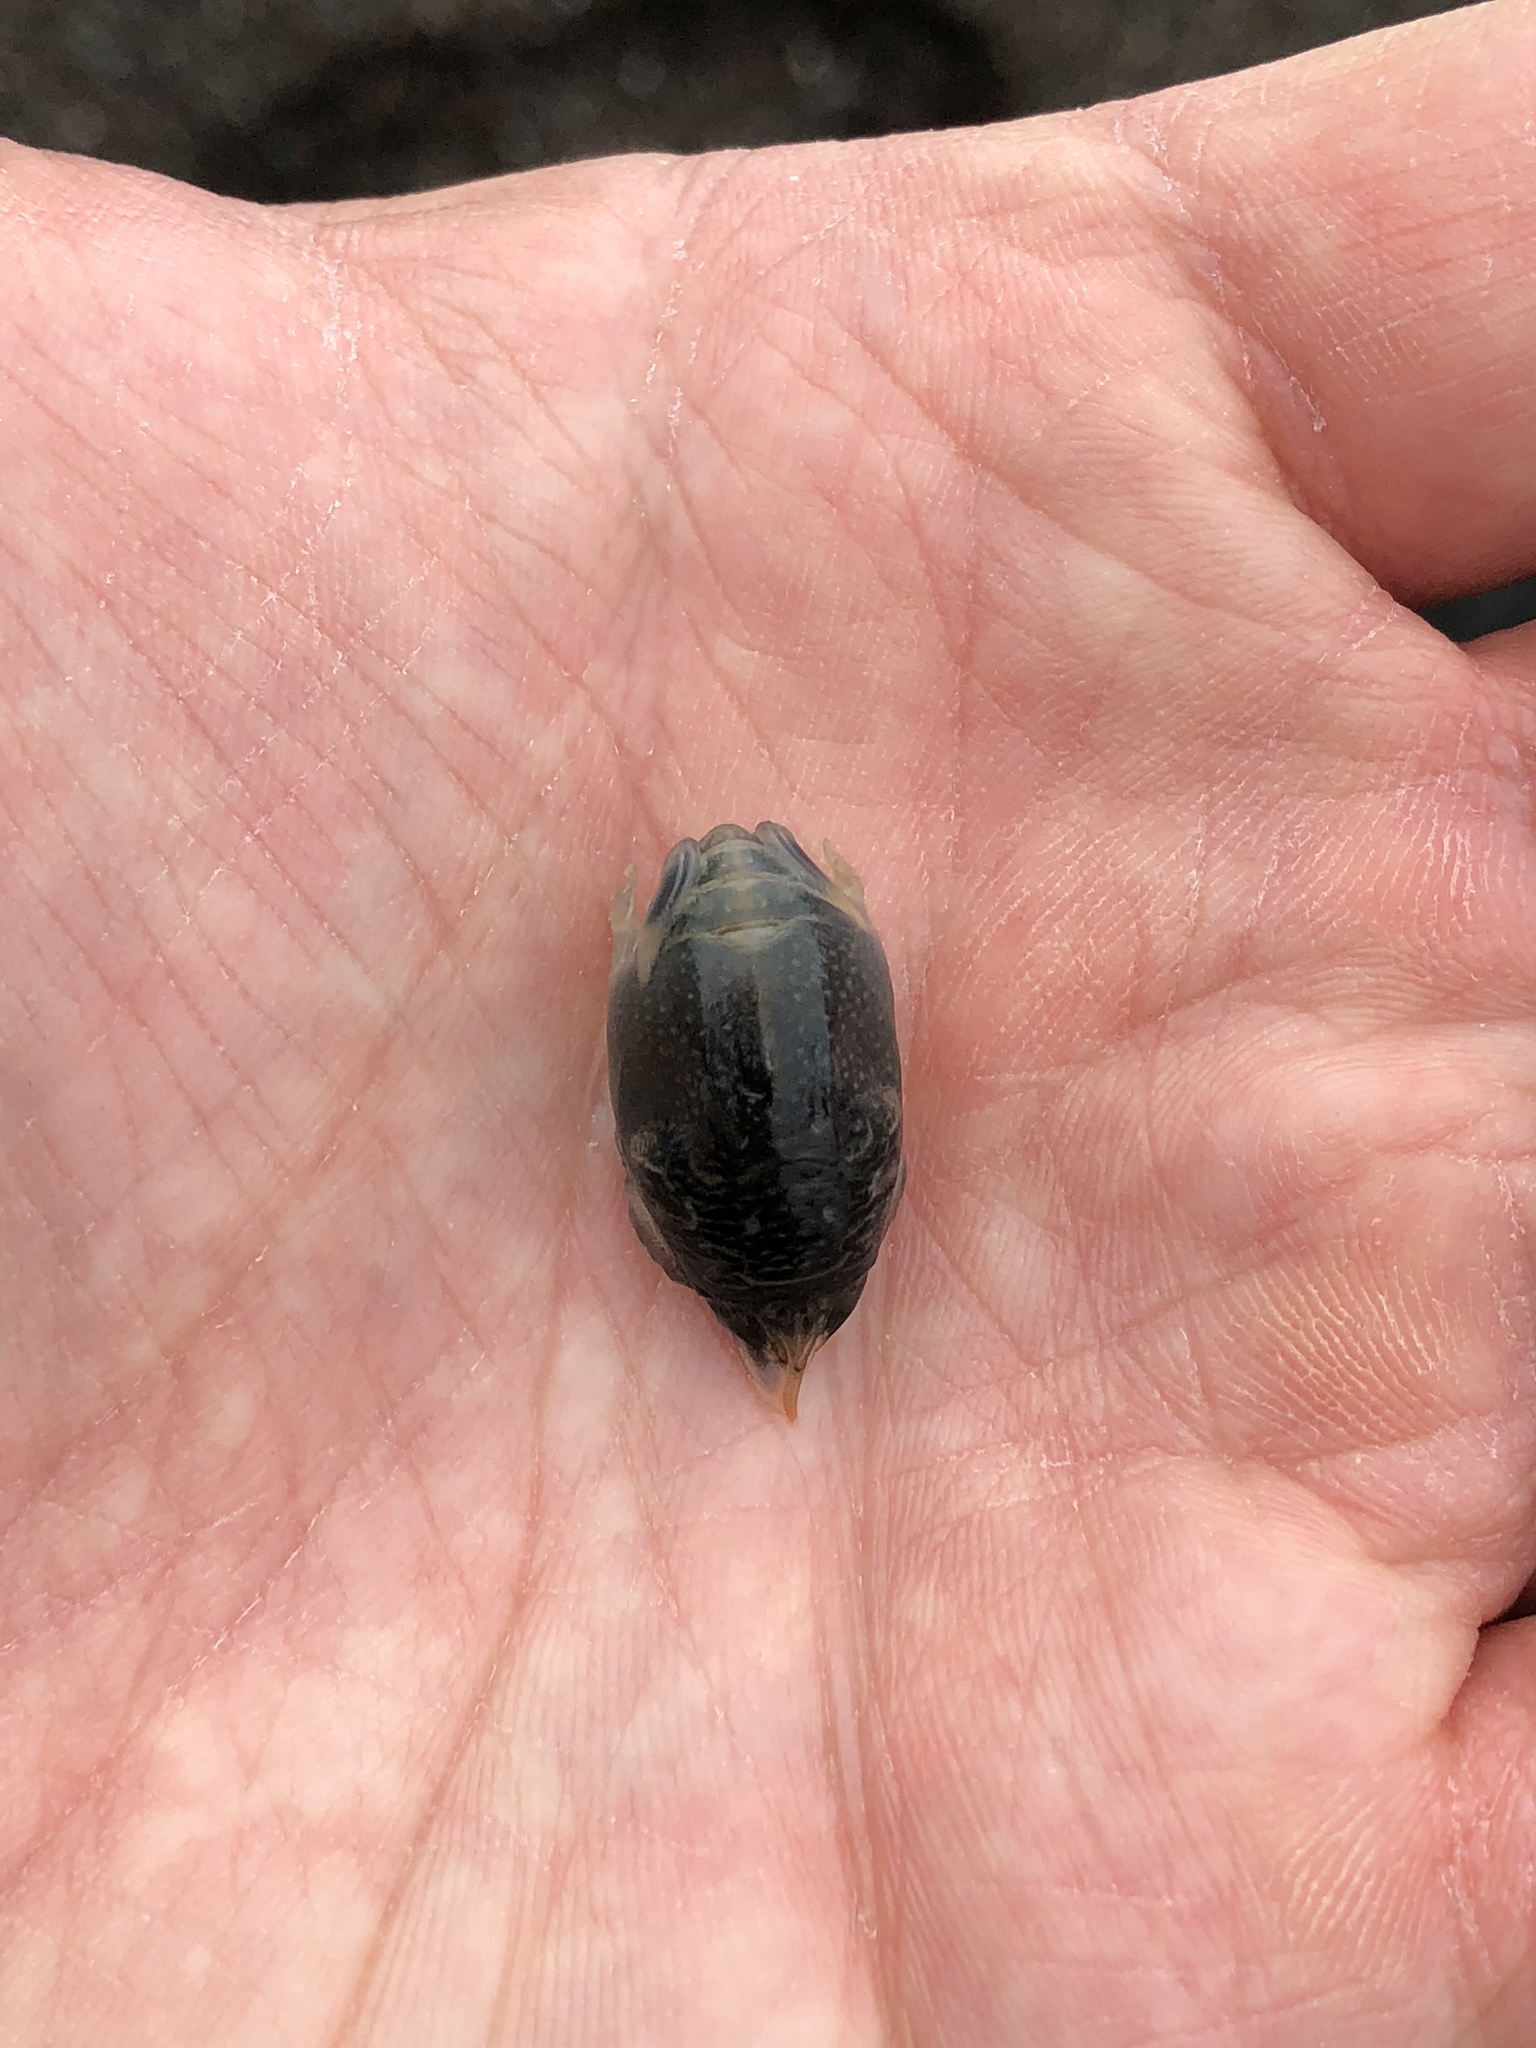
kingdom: Animalia
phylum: Arthropoda
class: Malacostraca
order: Decapoda
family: Hippidae
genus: Emerita
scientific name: Emerita analoga
